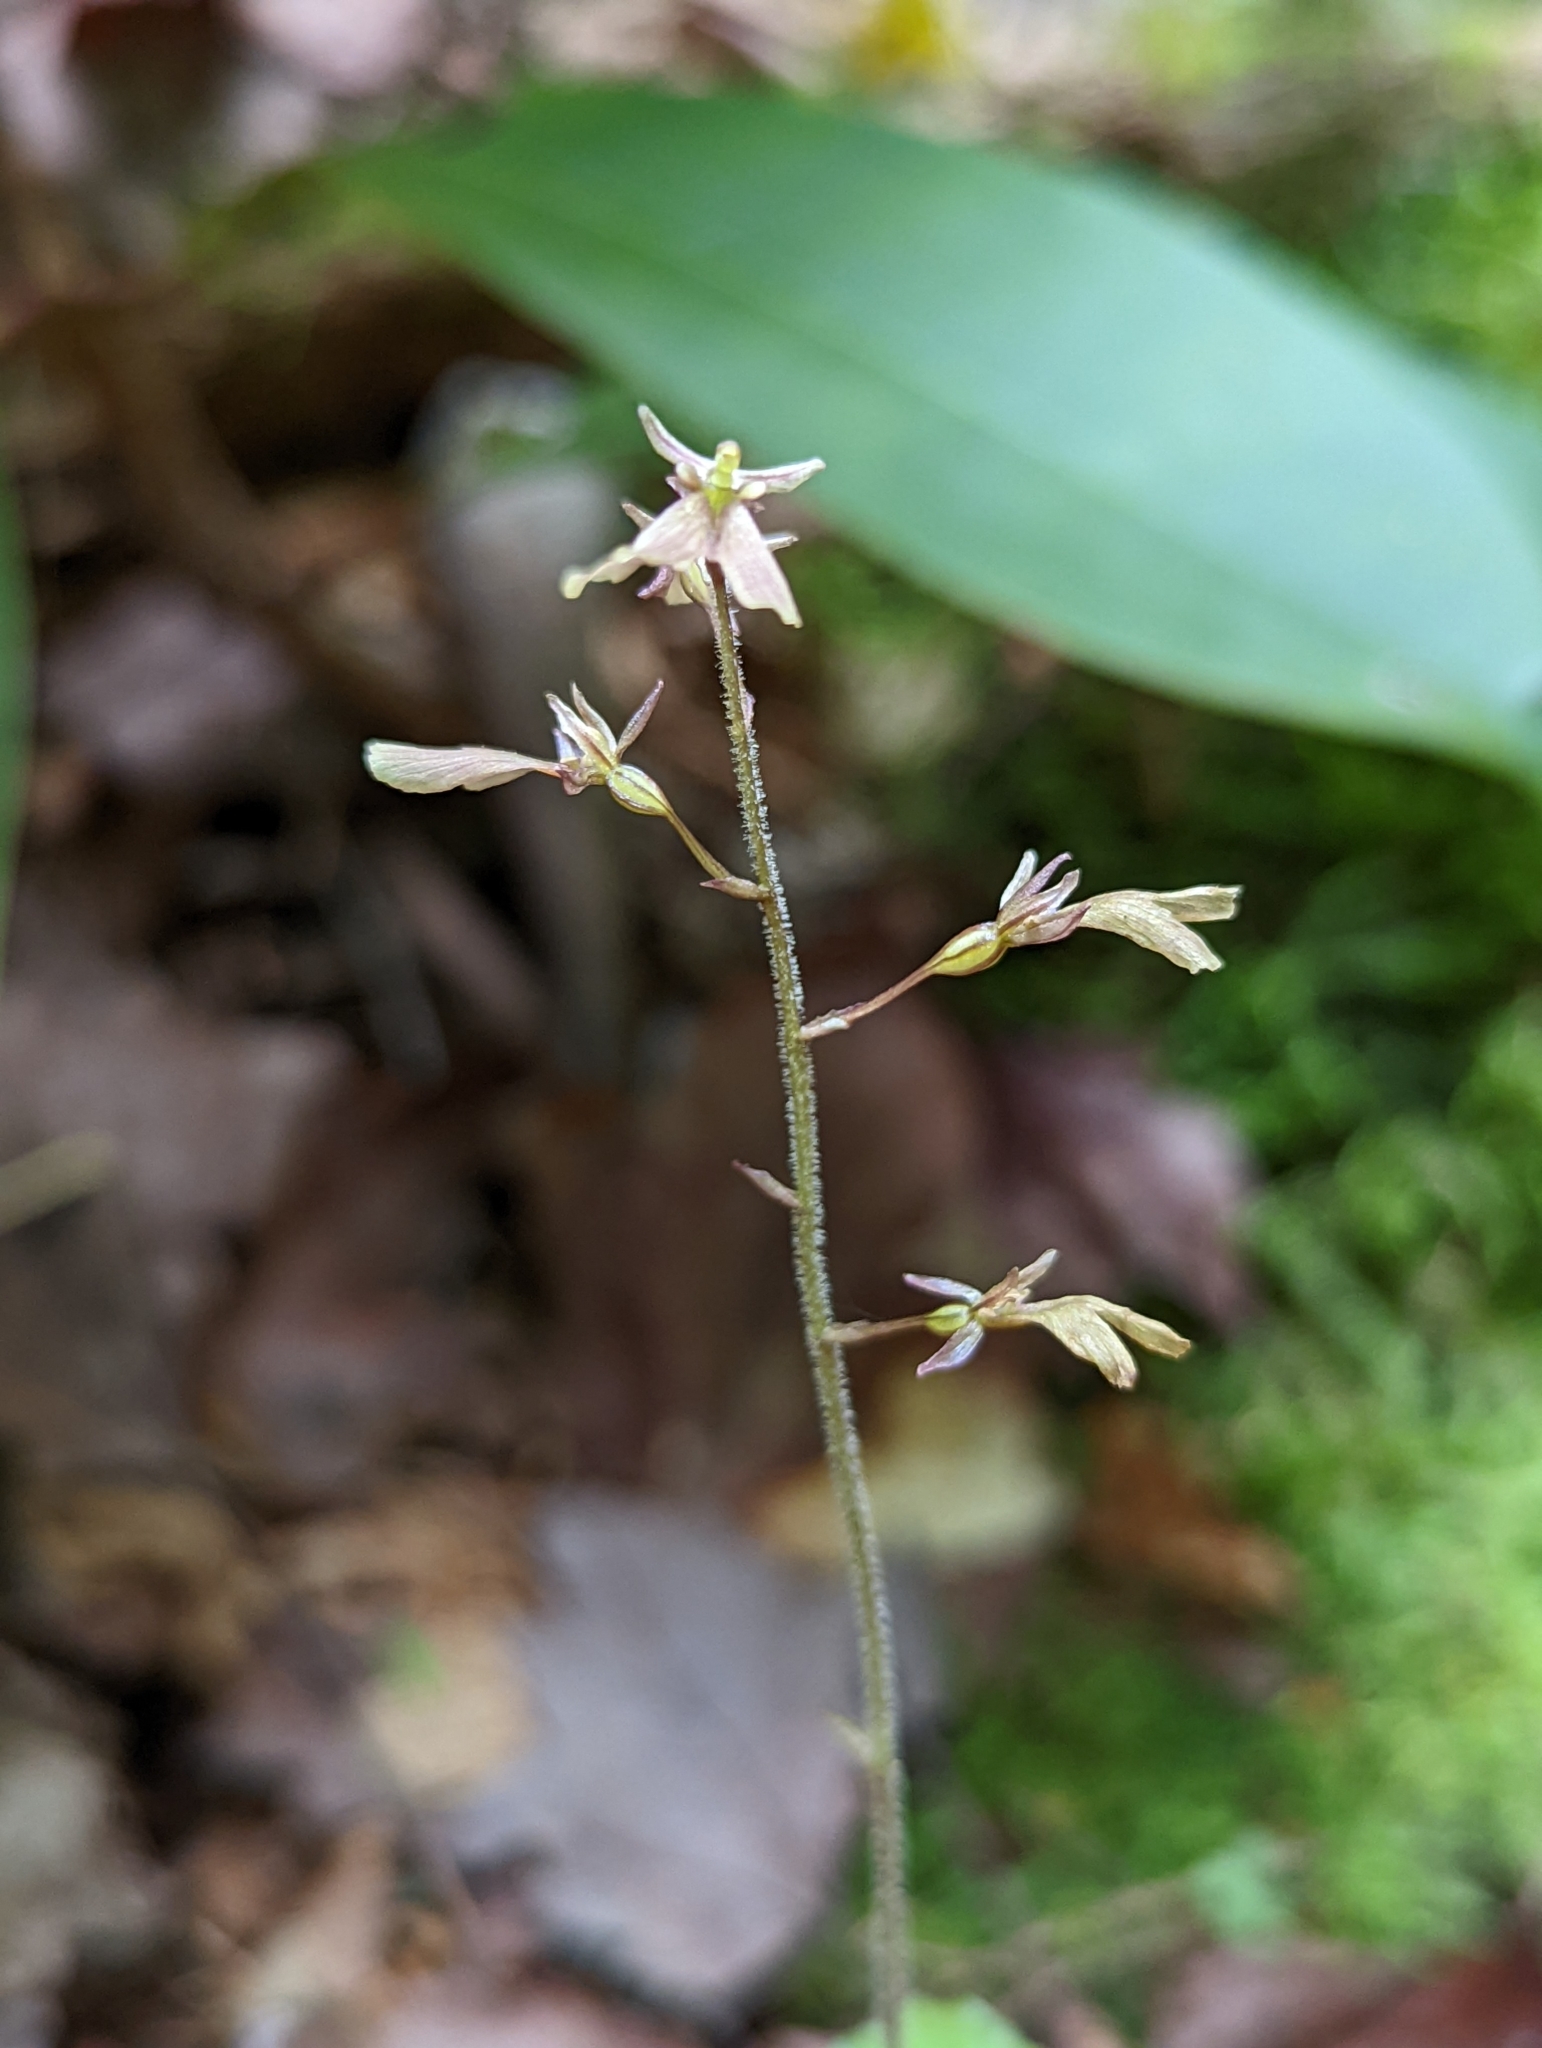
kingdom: Plantae
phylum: Tracheophyta
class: Liliopsida
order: Asparagales
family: Orchidaceae
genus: Neottia
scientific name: Neottia smallii
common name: Kidneyleaf twayblade
